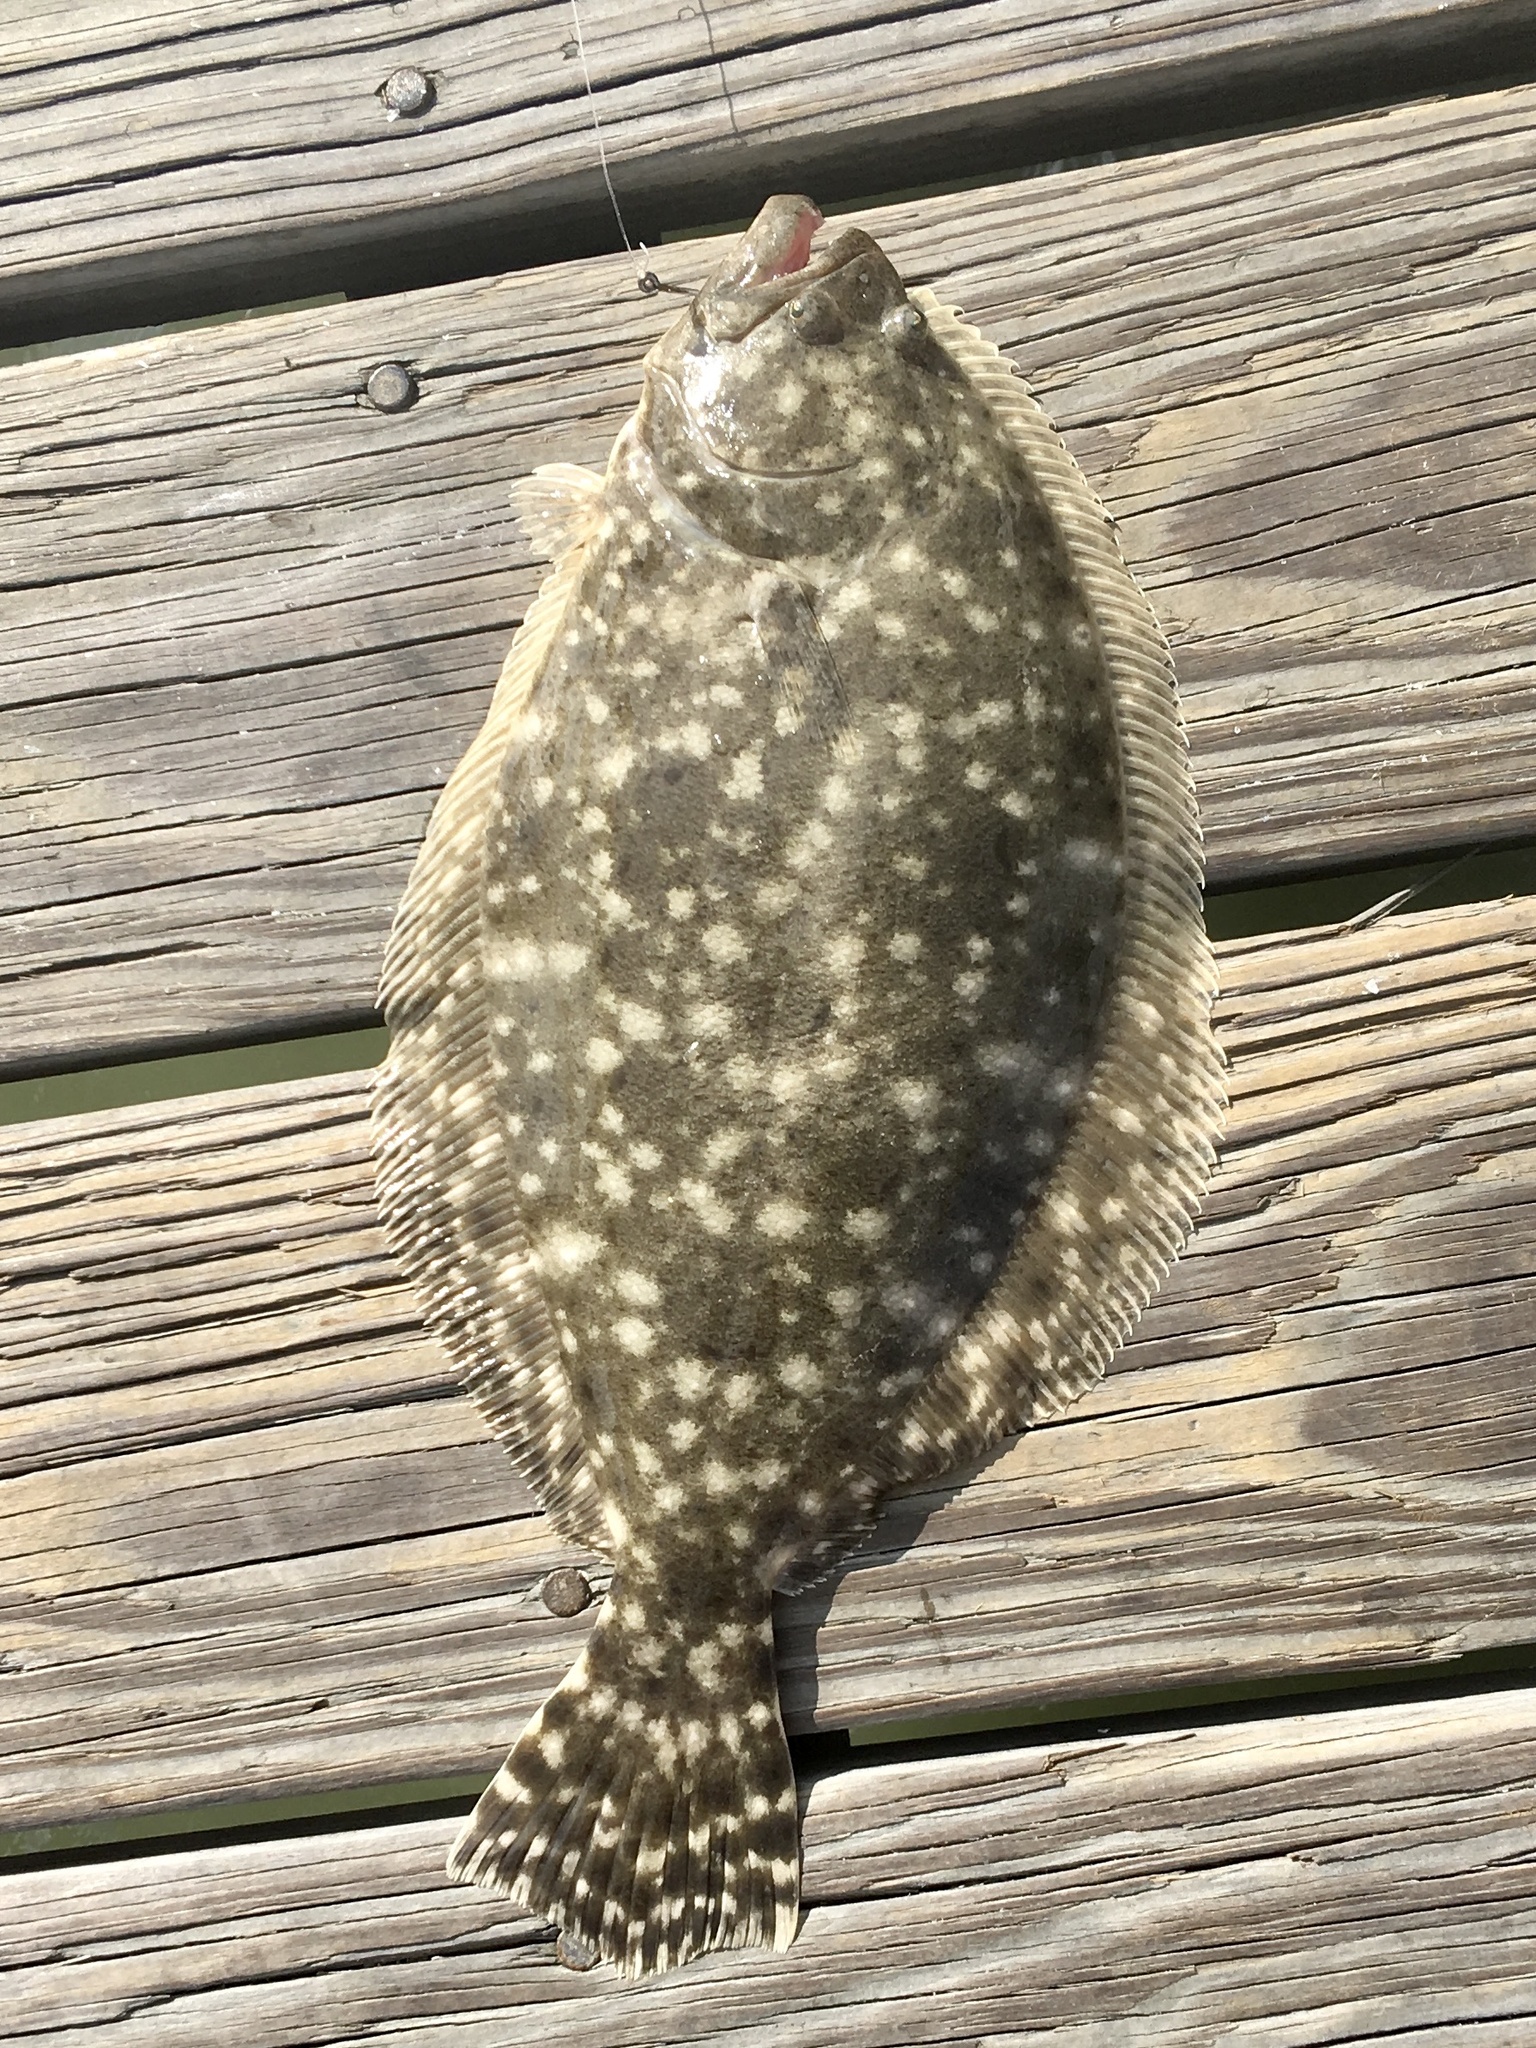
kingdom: Animalia
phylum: Chordata
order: Pleuronectiformes
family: Paralichthyidae
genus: Paralichthys
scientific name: Paralichthys lethostigma
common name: Southern flounder
